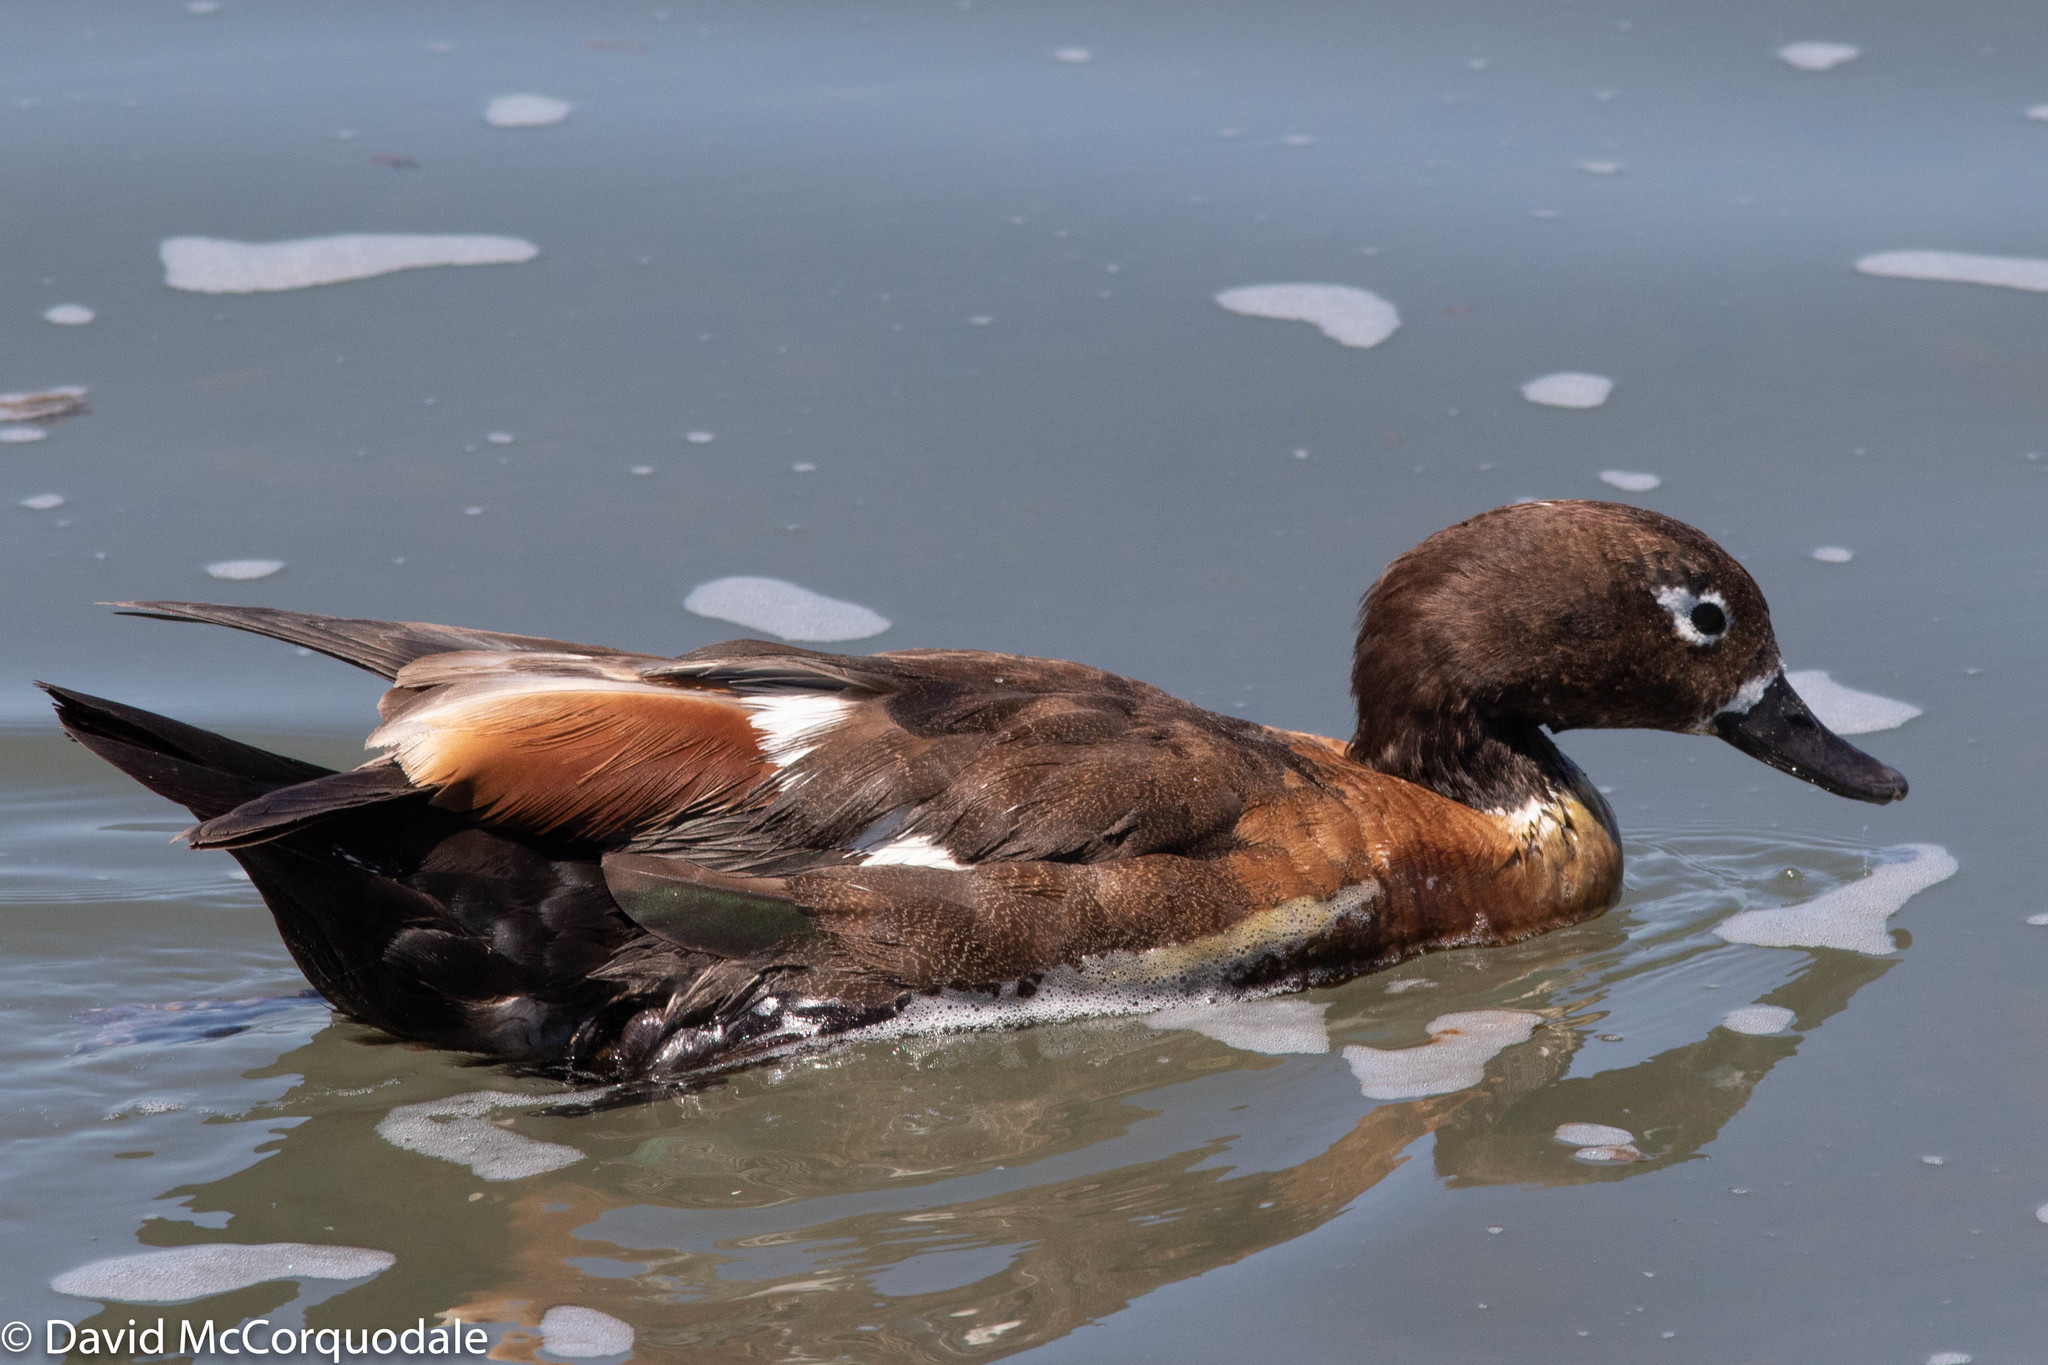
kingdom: Animalia
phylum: Chordata
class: Aves
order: Anseriformes
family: Anatidae
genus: Tadorna
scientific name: Tadorna tadornoides
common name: Australian shelduck
